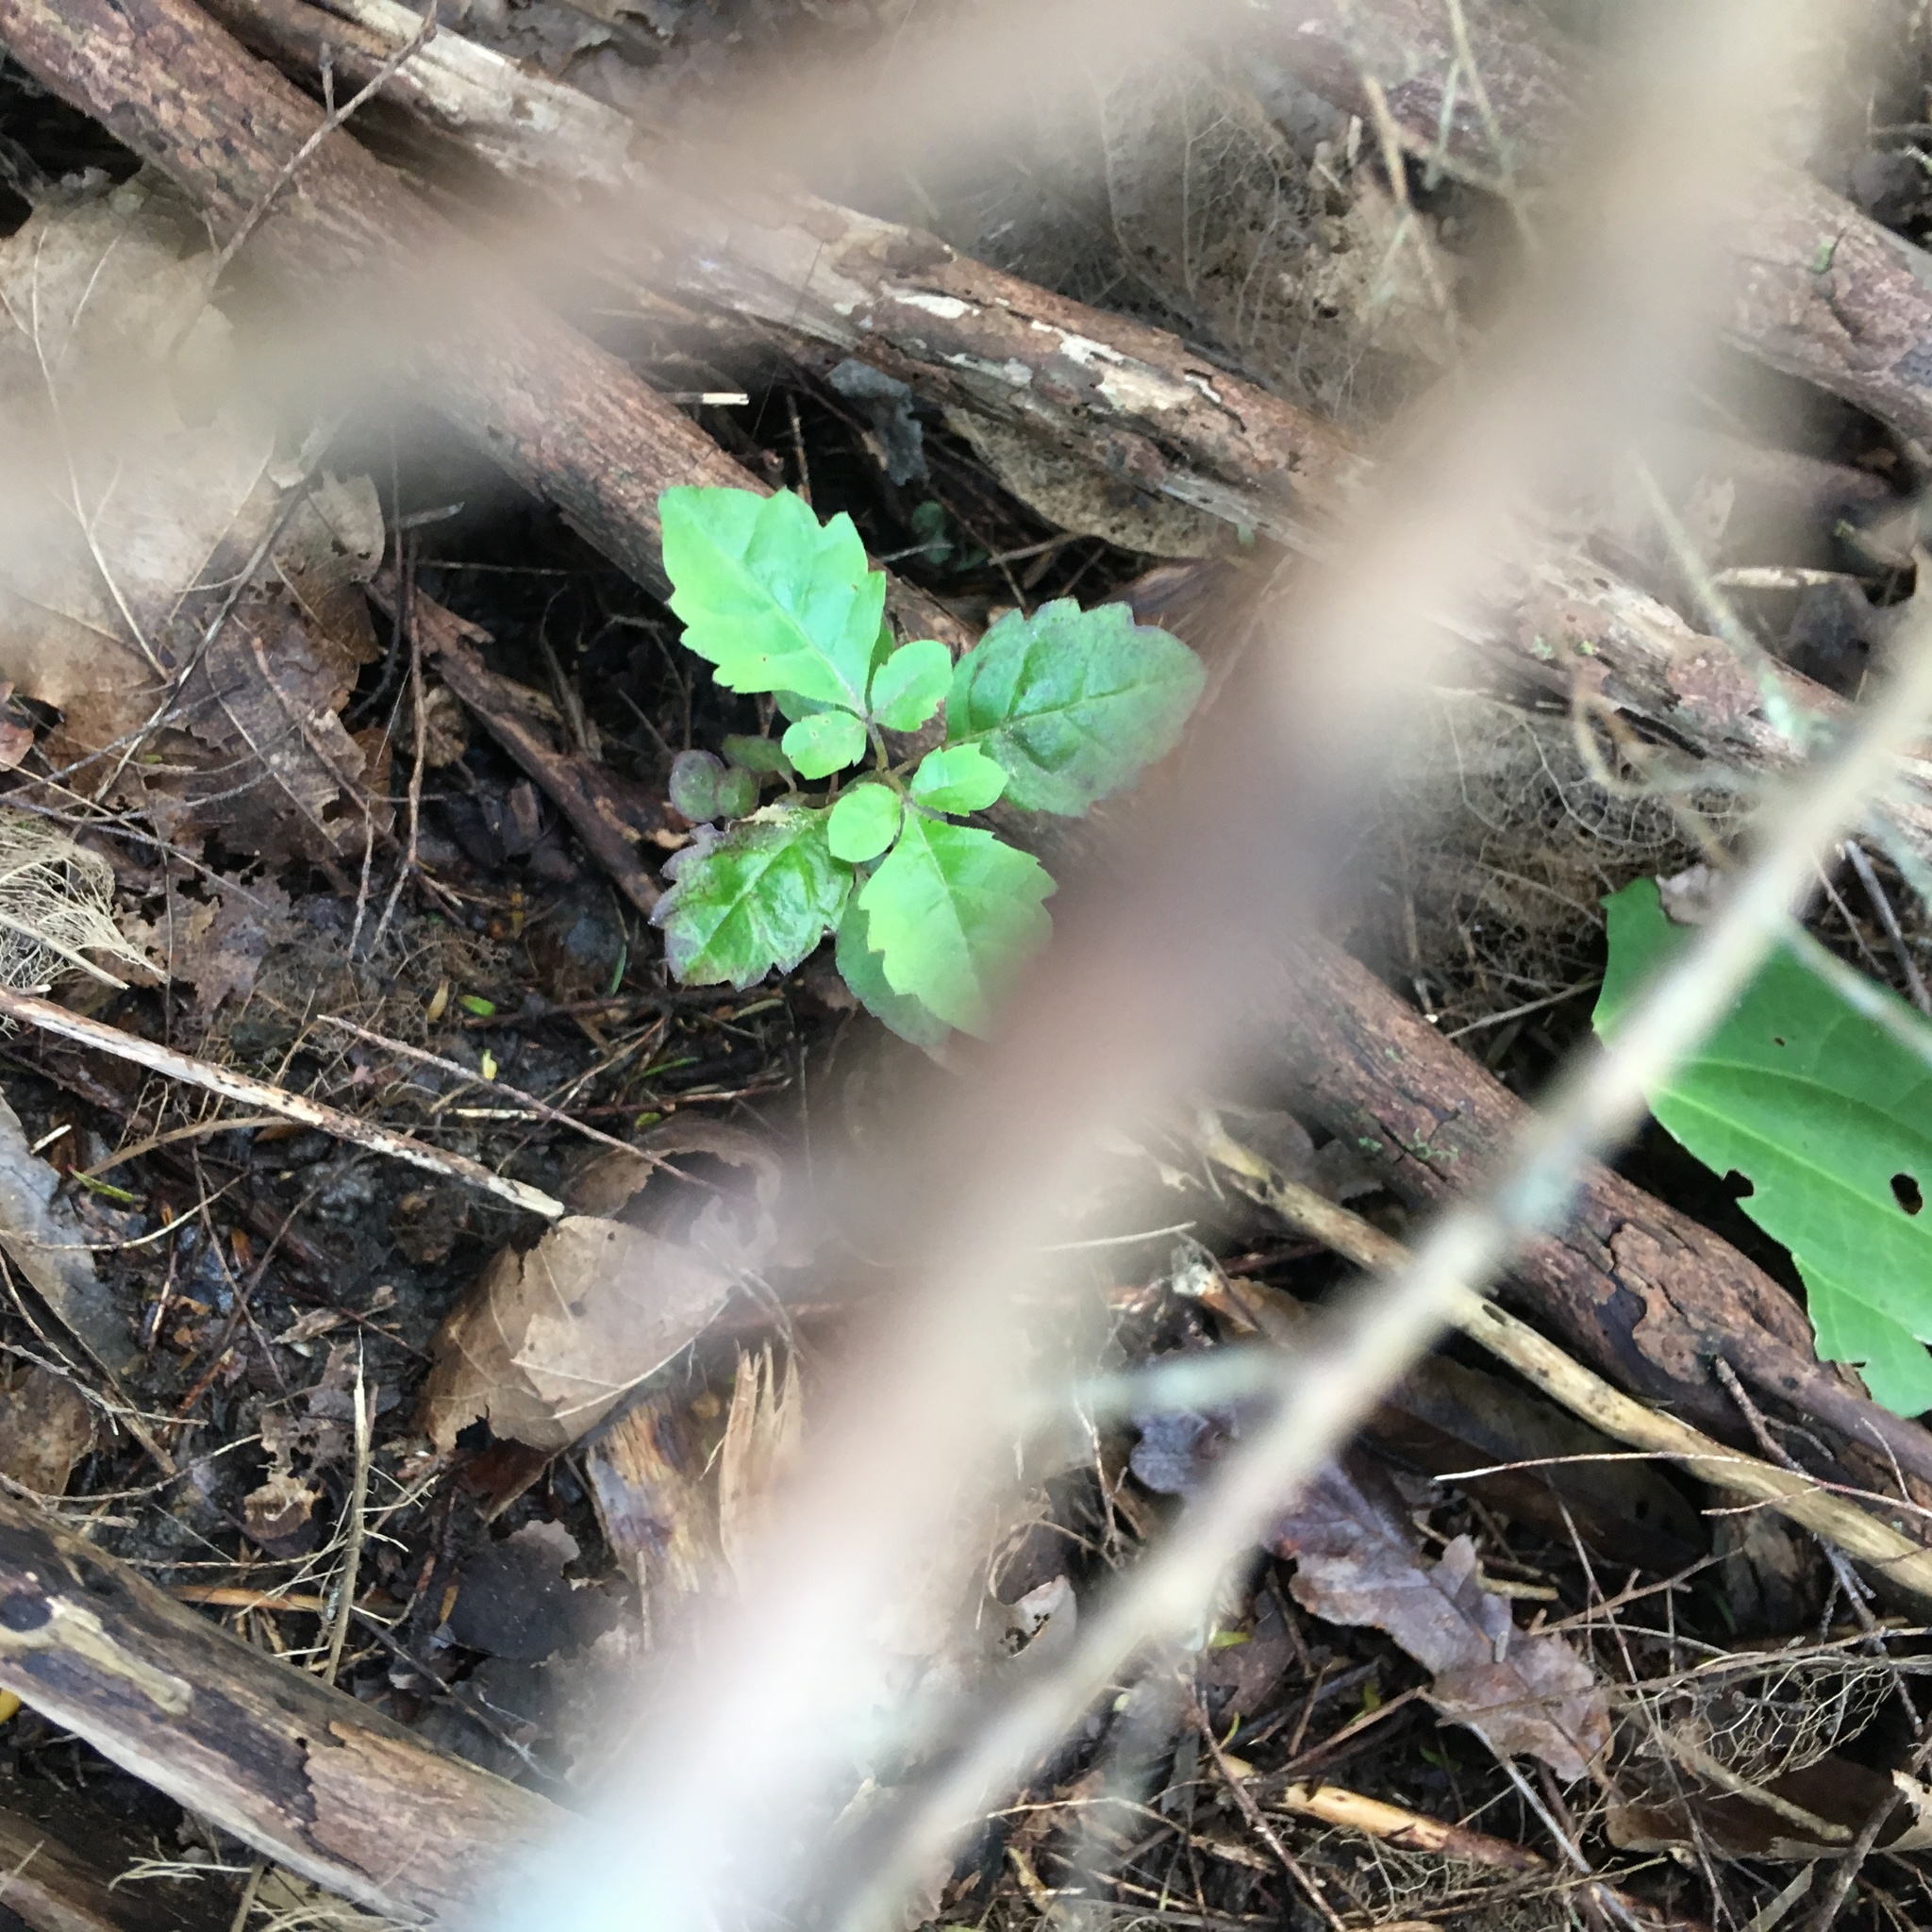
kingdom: Plantae
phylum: Tracheophyta
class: Magnoliopsida
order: Lamiales
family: Lamiaceae
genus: Vitex
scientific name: Vitex lucens
